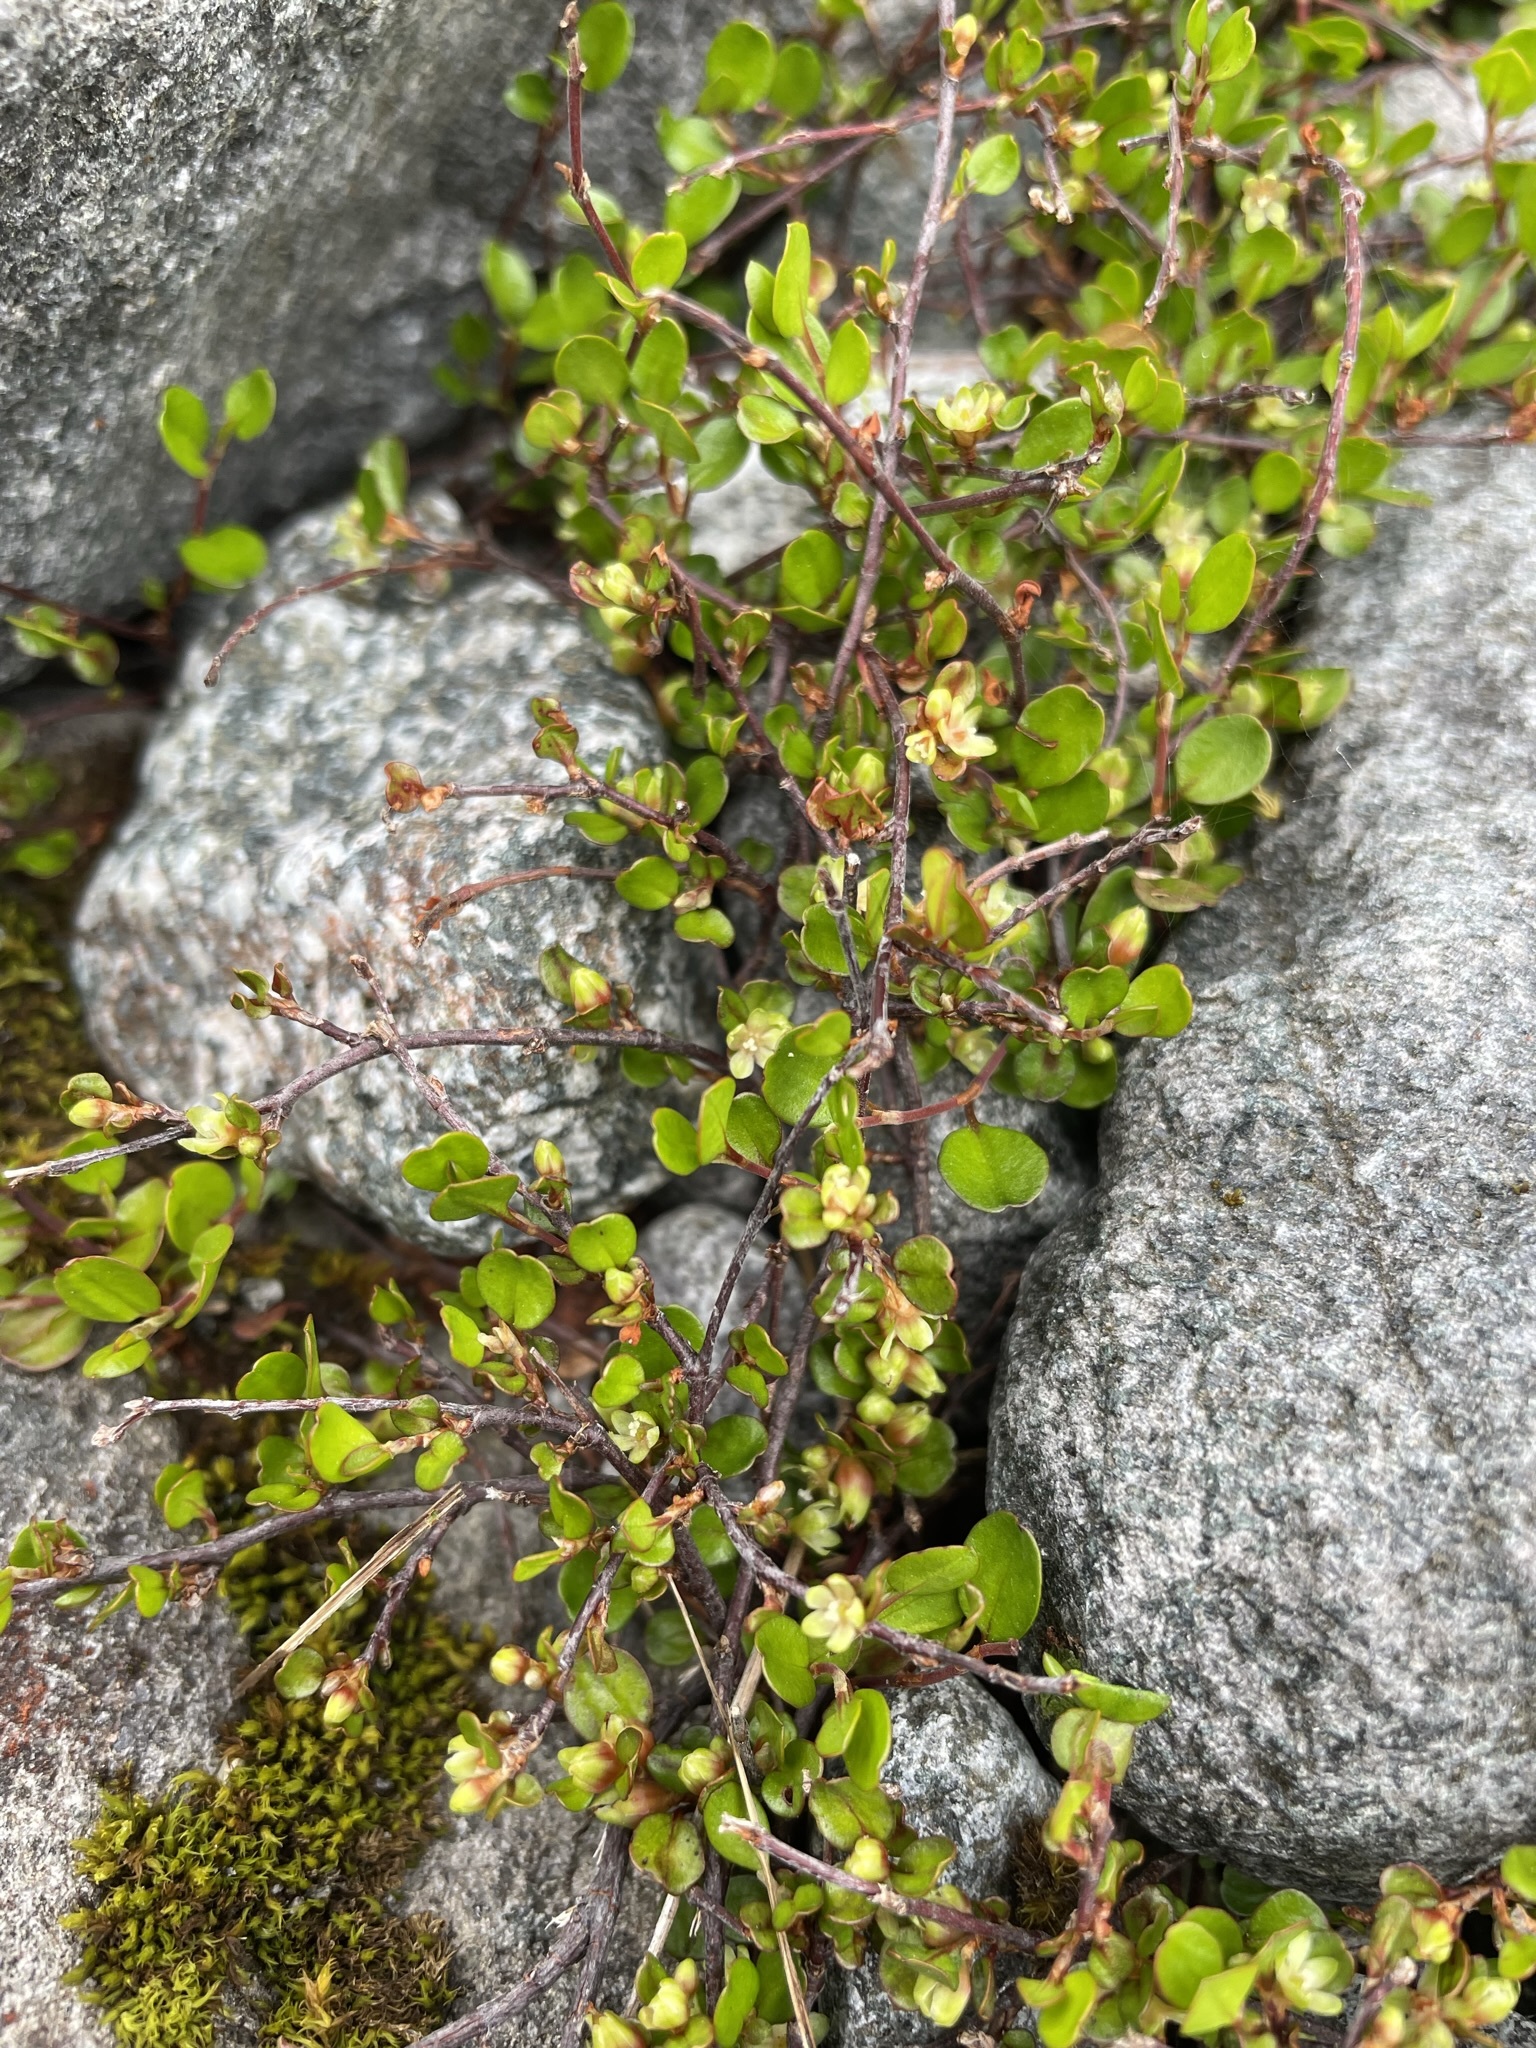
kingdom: Plantae
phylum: Tracheophyta
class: Magnoliopsida
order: Caryophyllales
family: Polygonaceae
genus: Muehlenbeckia
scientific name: Muehlenbeckia axillaris
